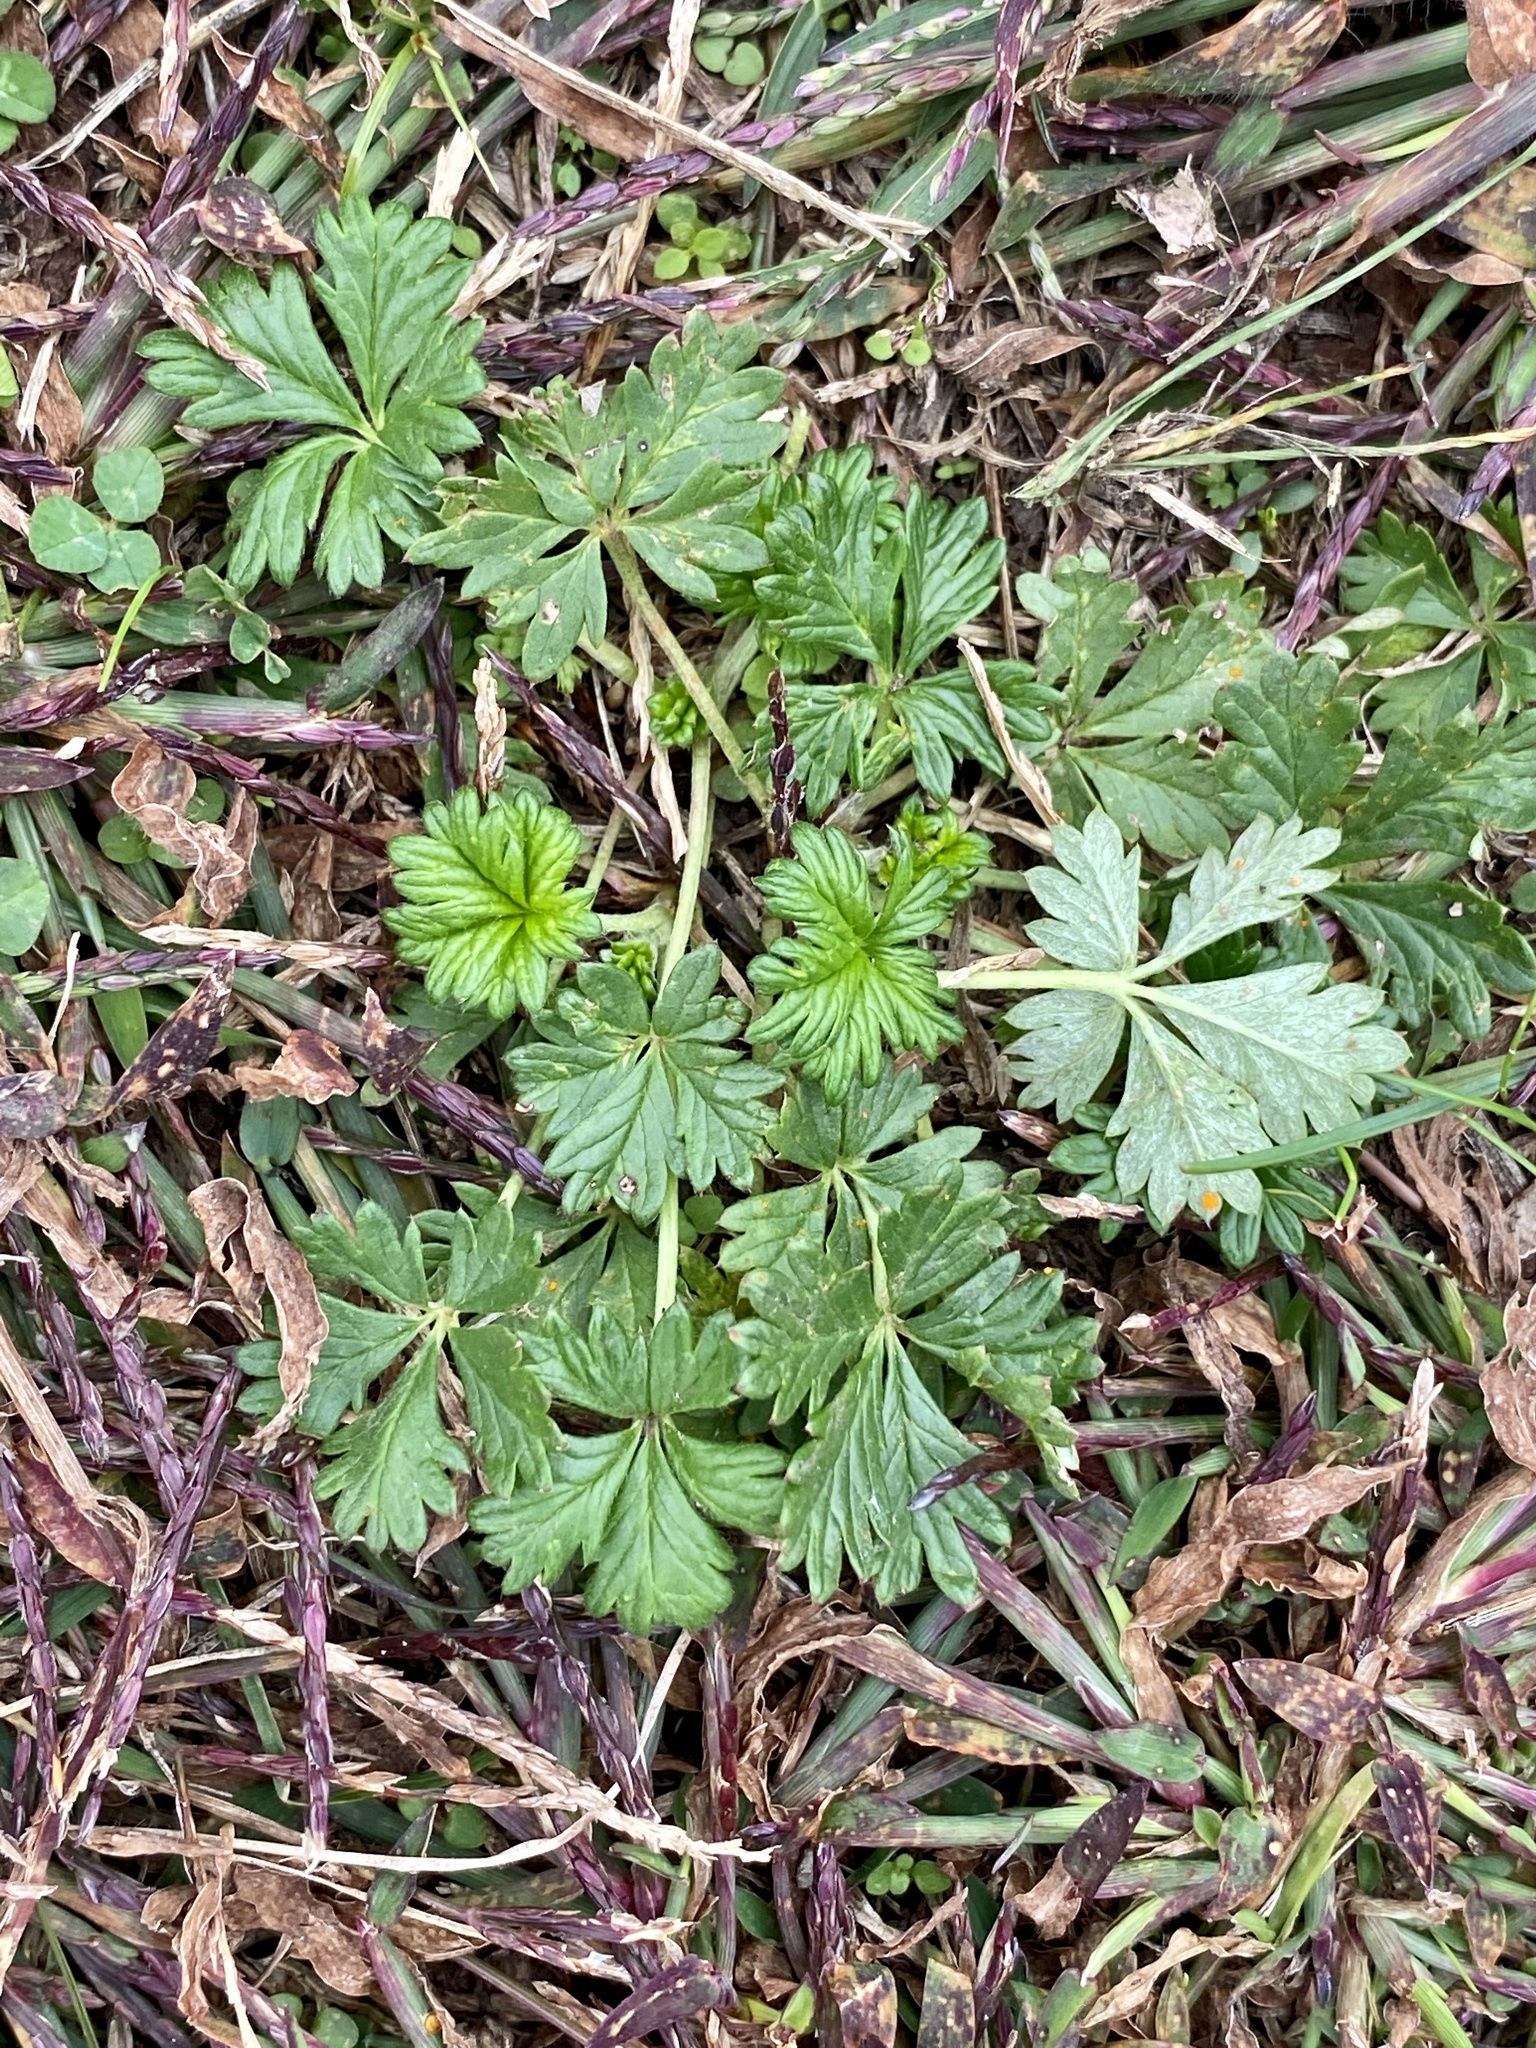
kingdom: Plantae
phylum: Tracheophyta
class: Magnoliopsida
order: Rosales
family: Rosaceae
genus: Potentilla
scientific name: Potentilla argentea
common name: Hoary cinquefoil
